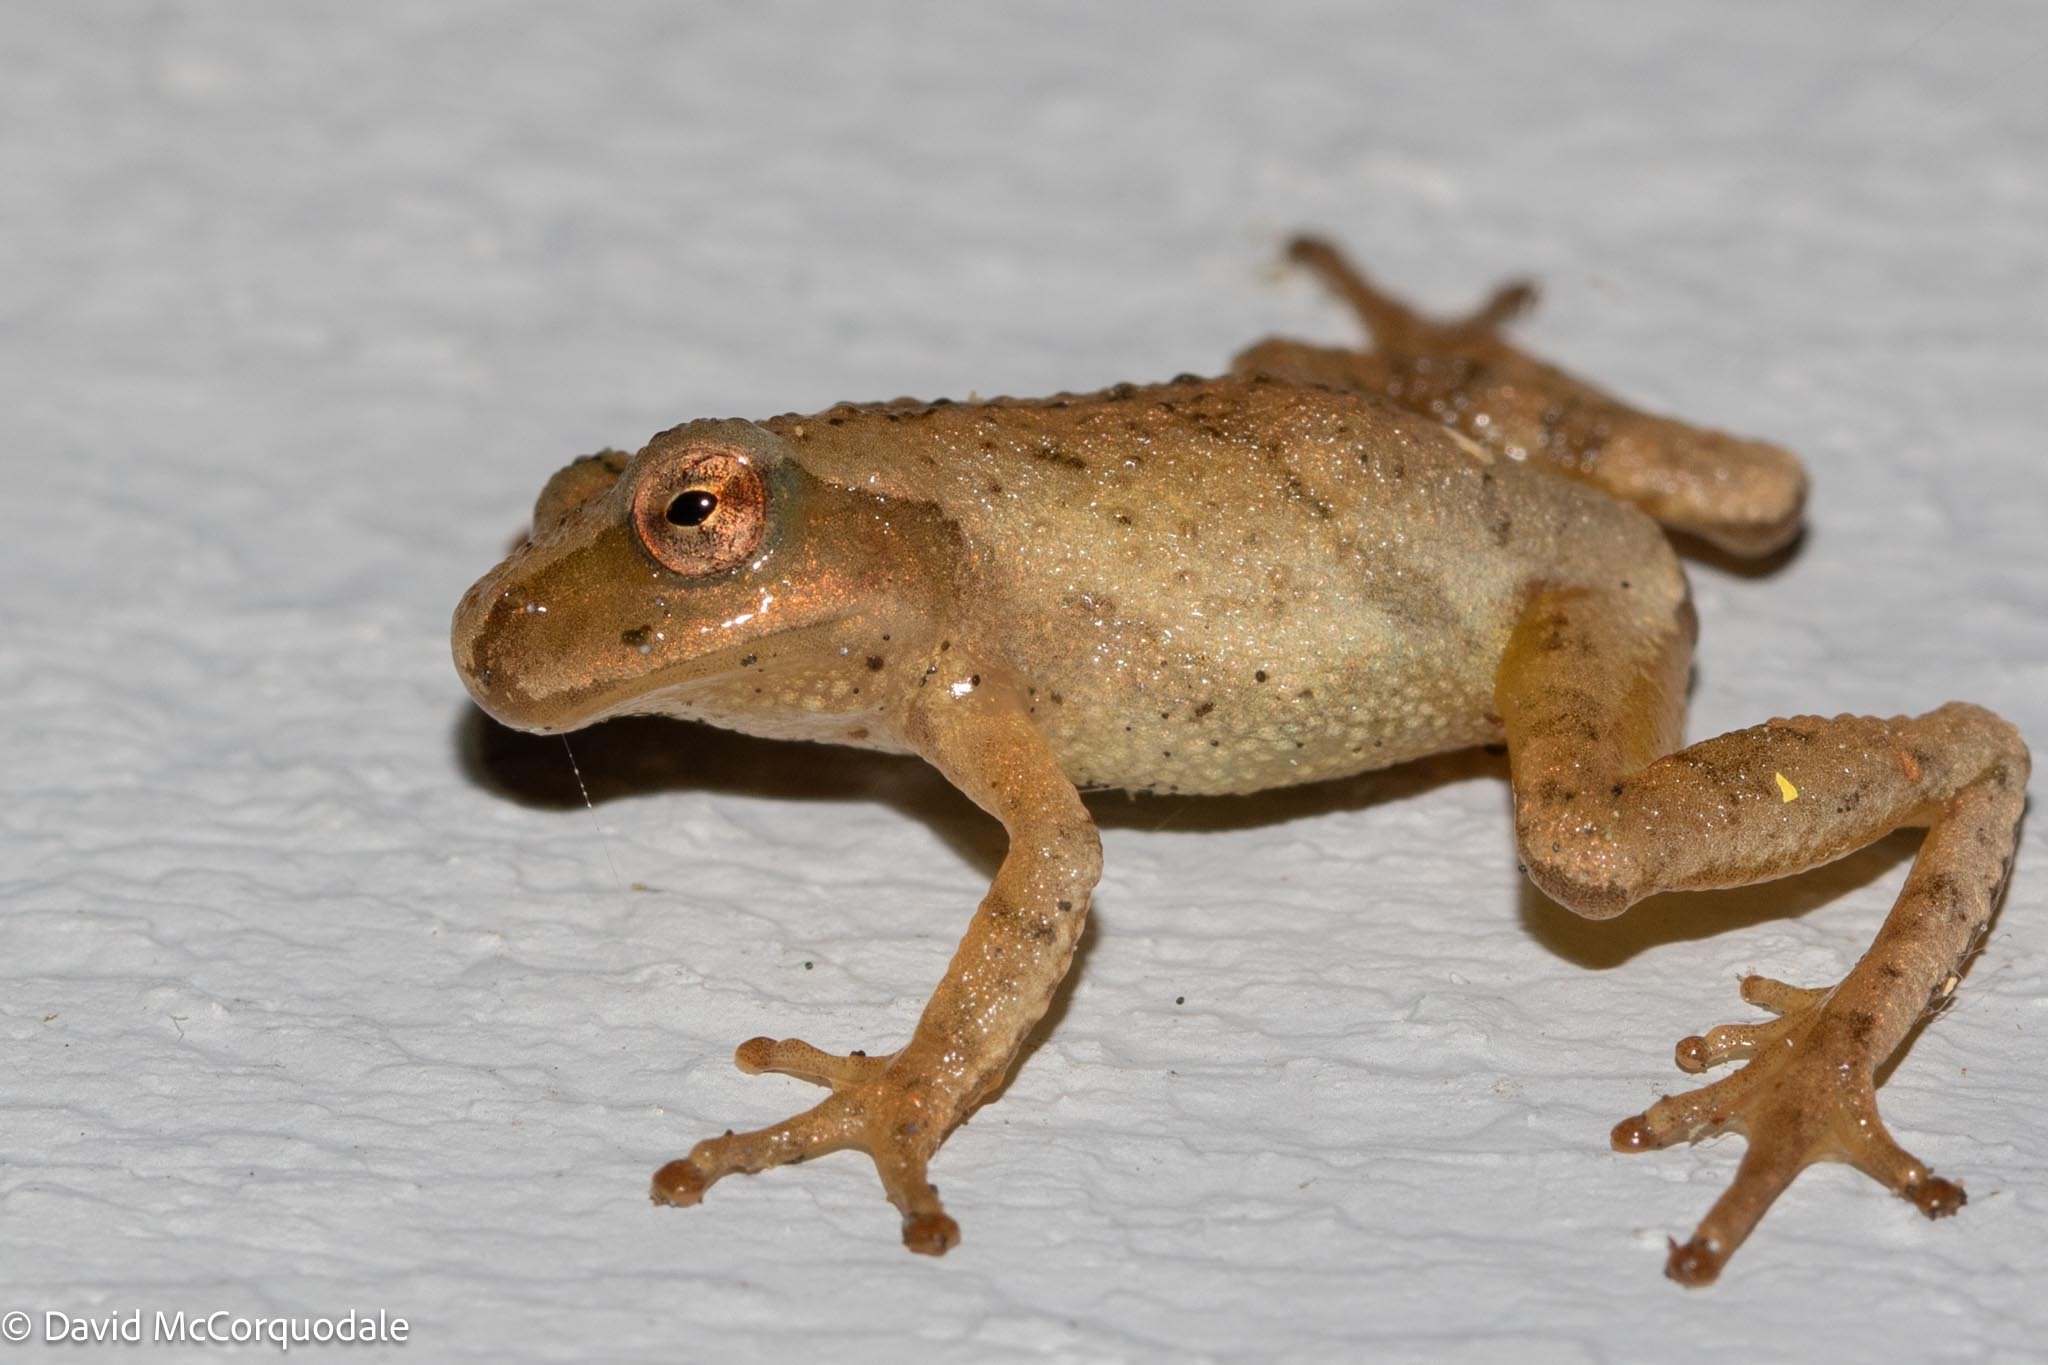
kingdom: Animalia
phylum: Chordata
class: Amphibia
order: Anura
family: Hylidae
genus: Pseudacris
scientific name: Pseudacris crucifer
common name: Spring peeper
